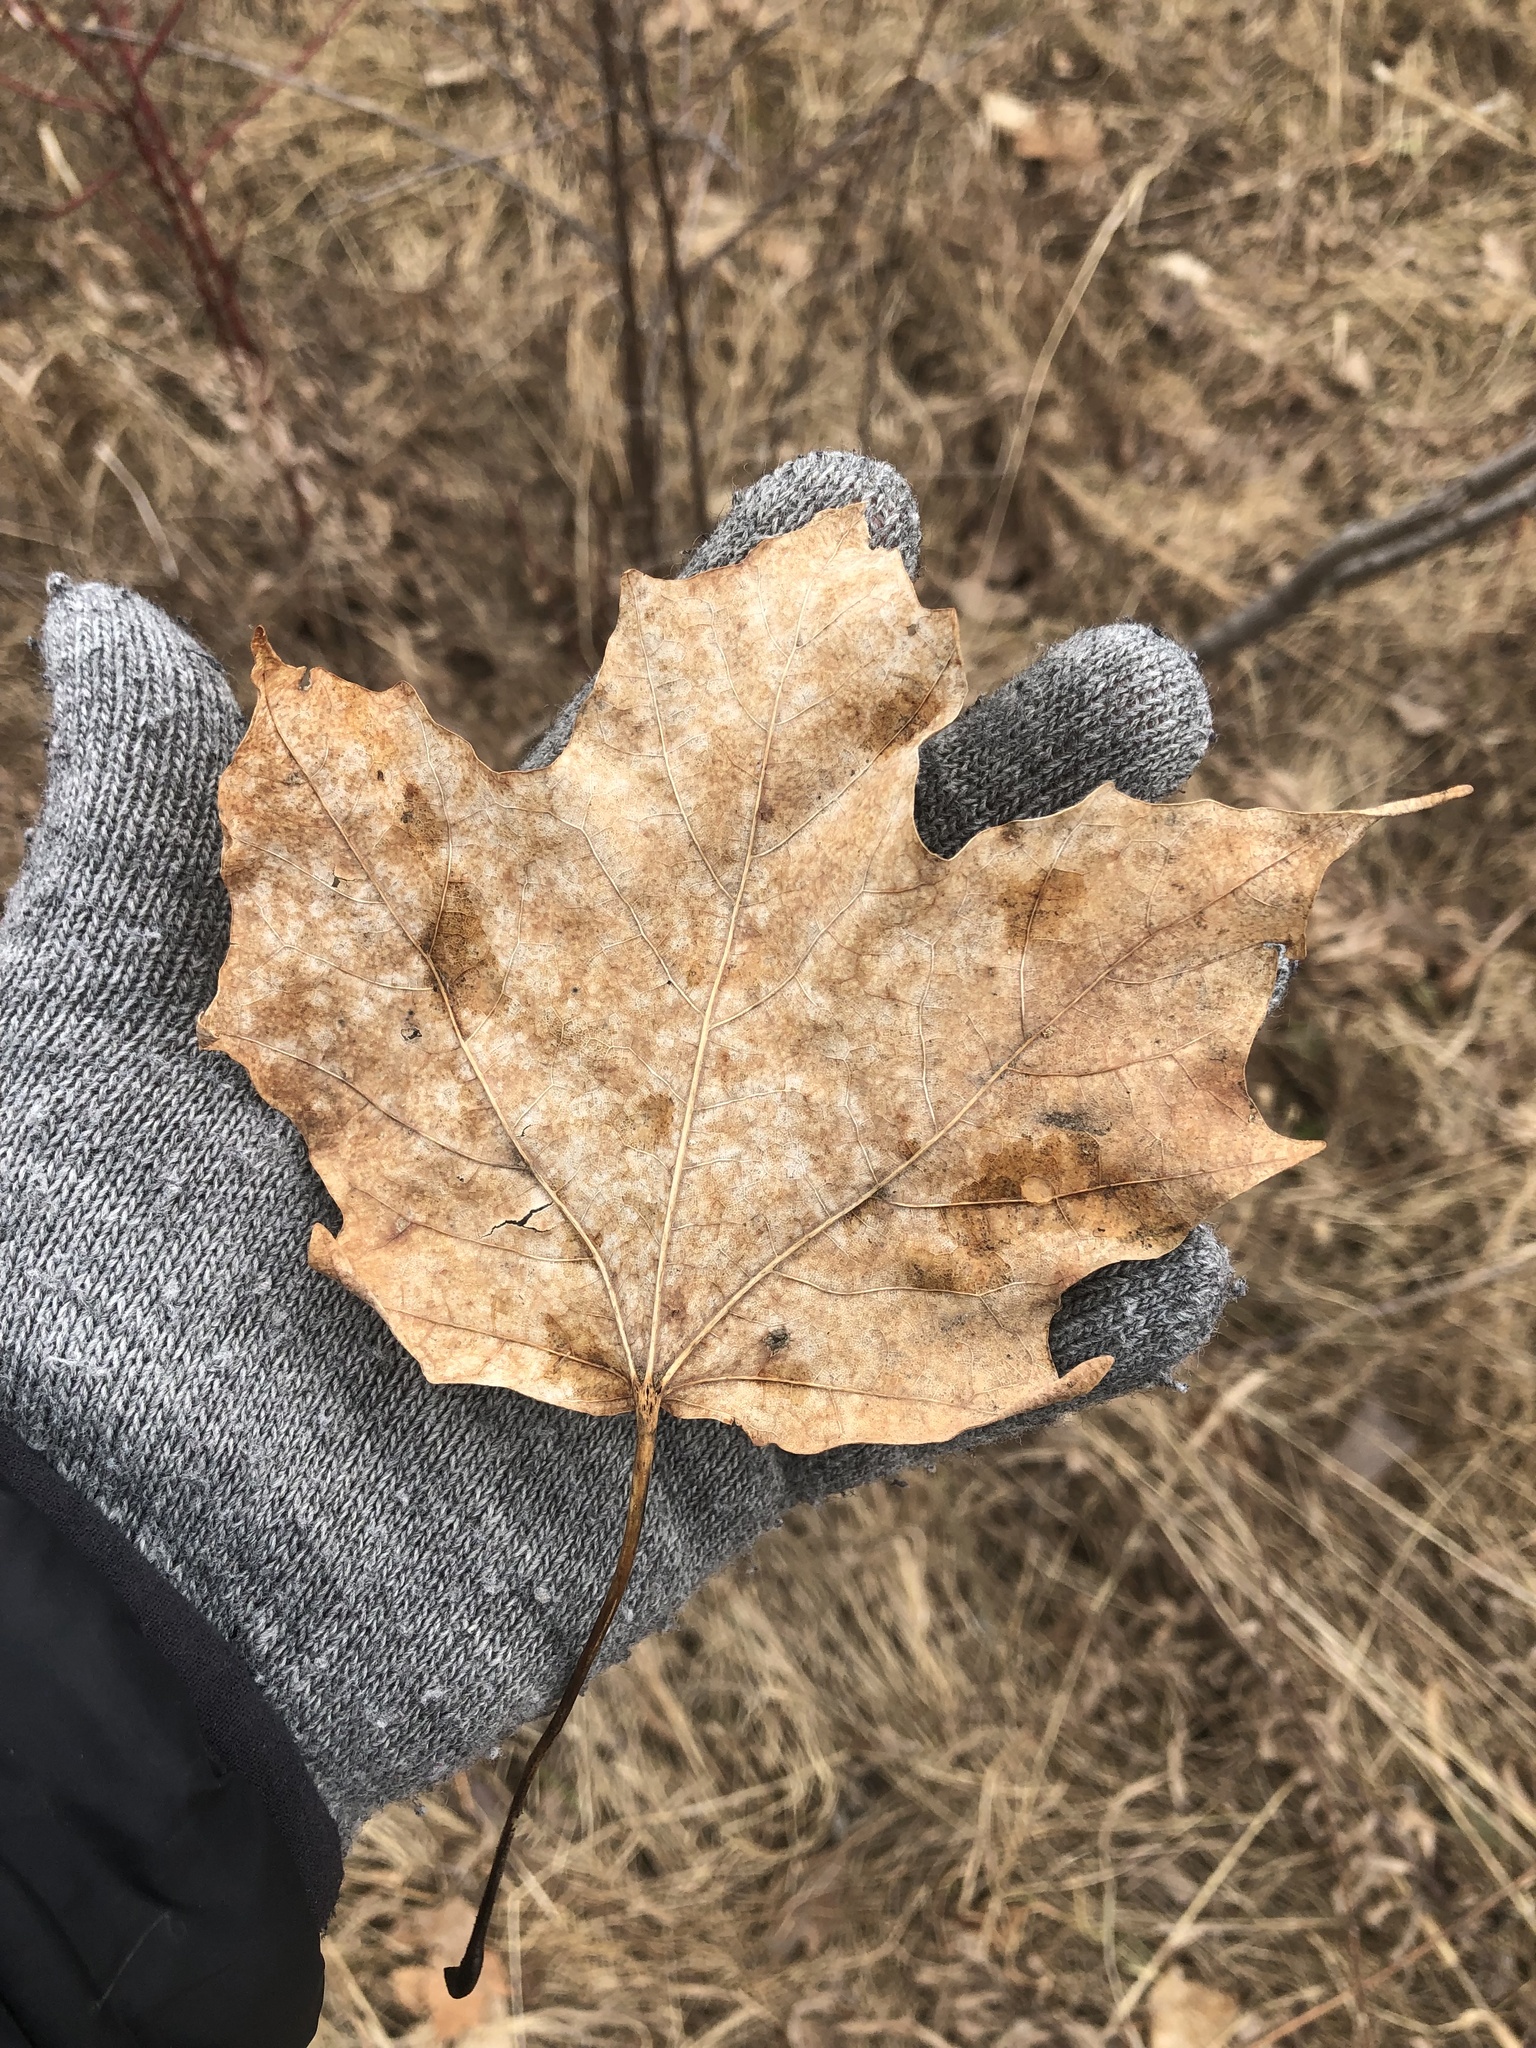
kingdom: Plantae
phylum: Tracheophyta
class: Magnoliopsida
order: Sapindales
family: Sapindaceae
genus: Acer
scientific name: Acer saccharum
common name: Sugar maple
